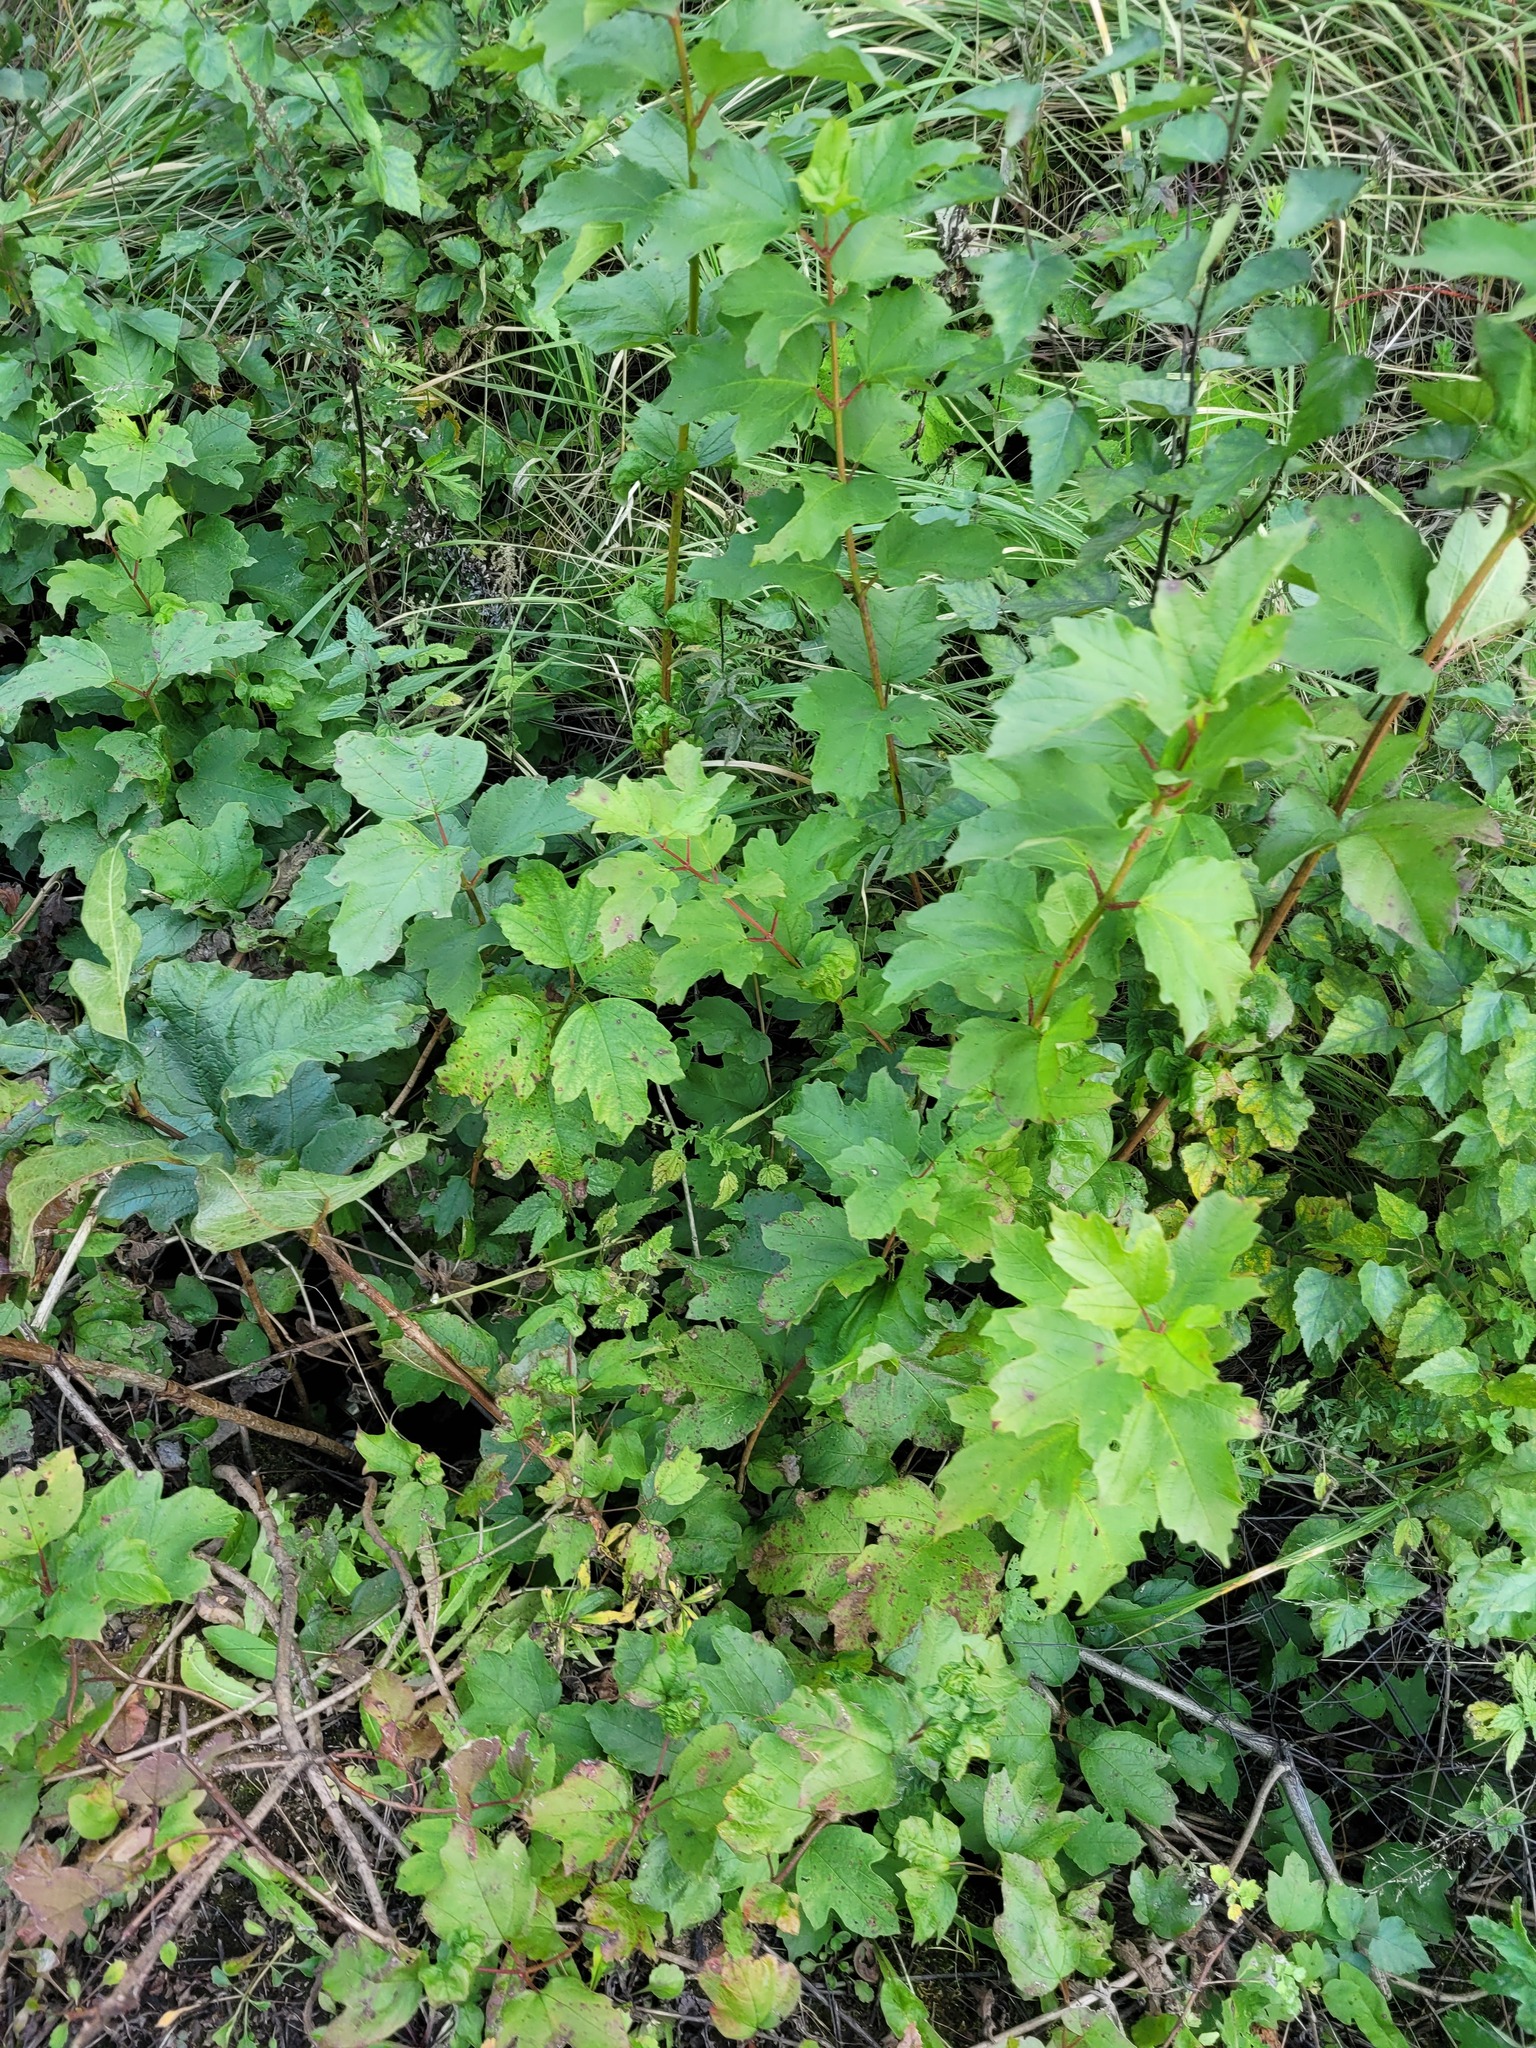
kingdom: Plantae
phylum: Tracheophyta
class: Magnoliopsida
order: Dipsacales
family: Viburnaceae
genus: Viburnum
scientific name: Viburnum opulus
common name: Guelder-rose
